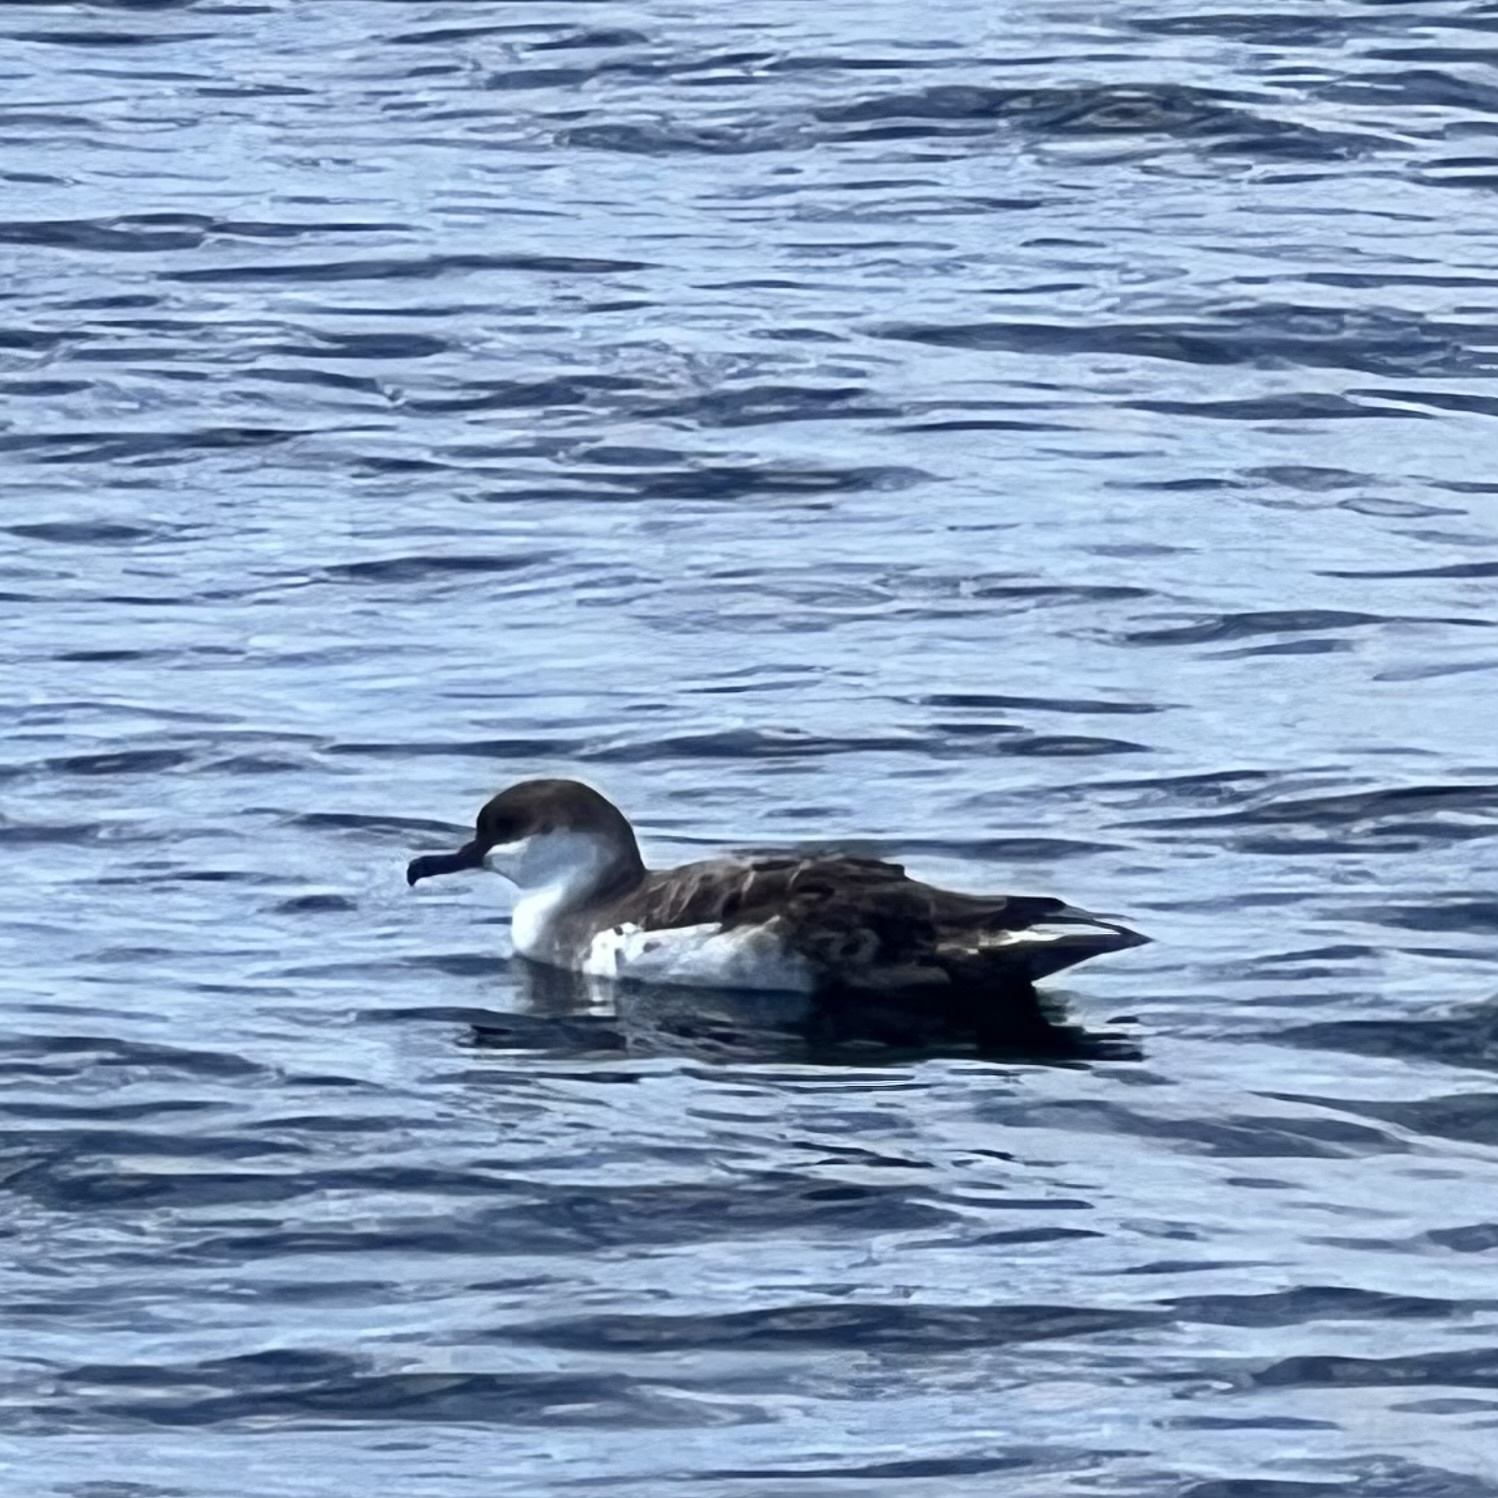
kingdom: Animalia
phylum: Chordata
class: Aves
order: Procellariiformes
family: Procellariidae
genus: Puffinus
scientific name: Puffinus gravis
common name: Great shearwater
